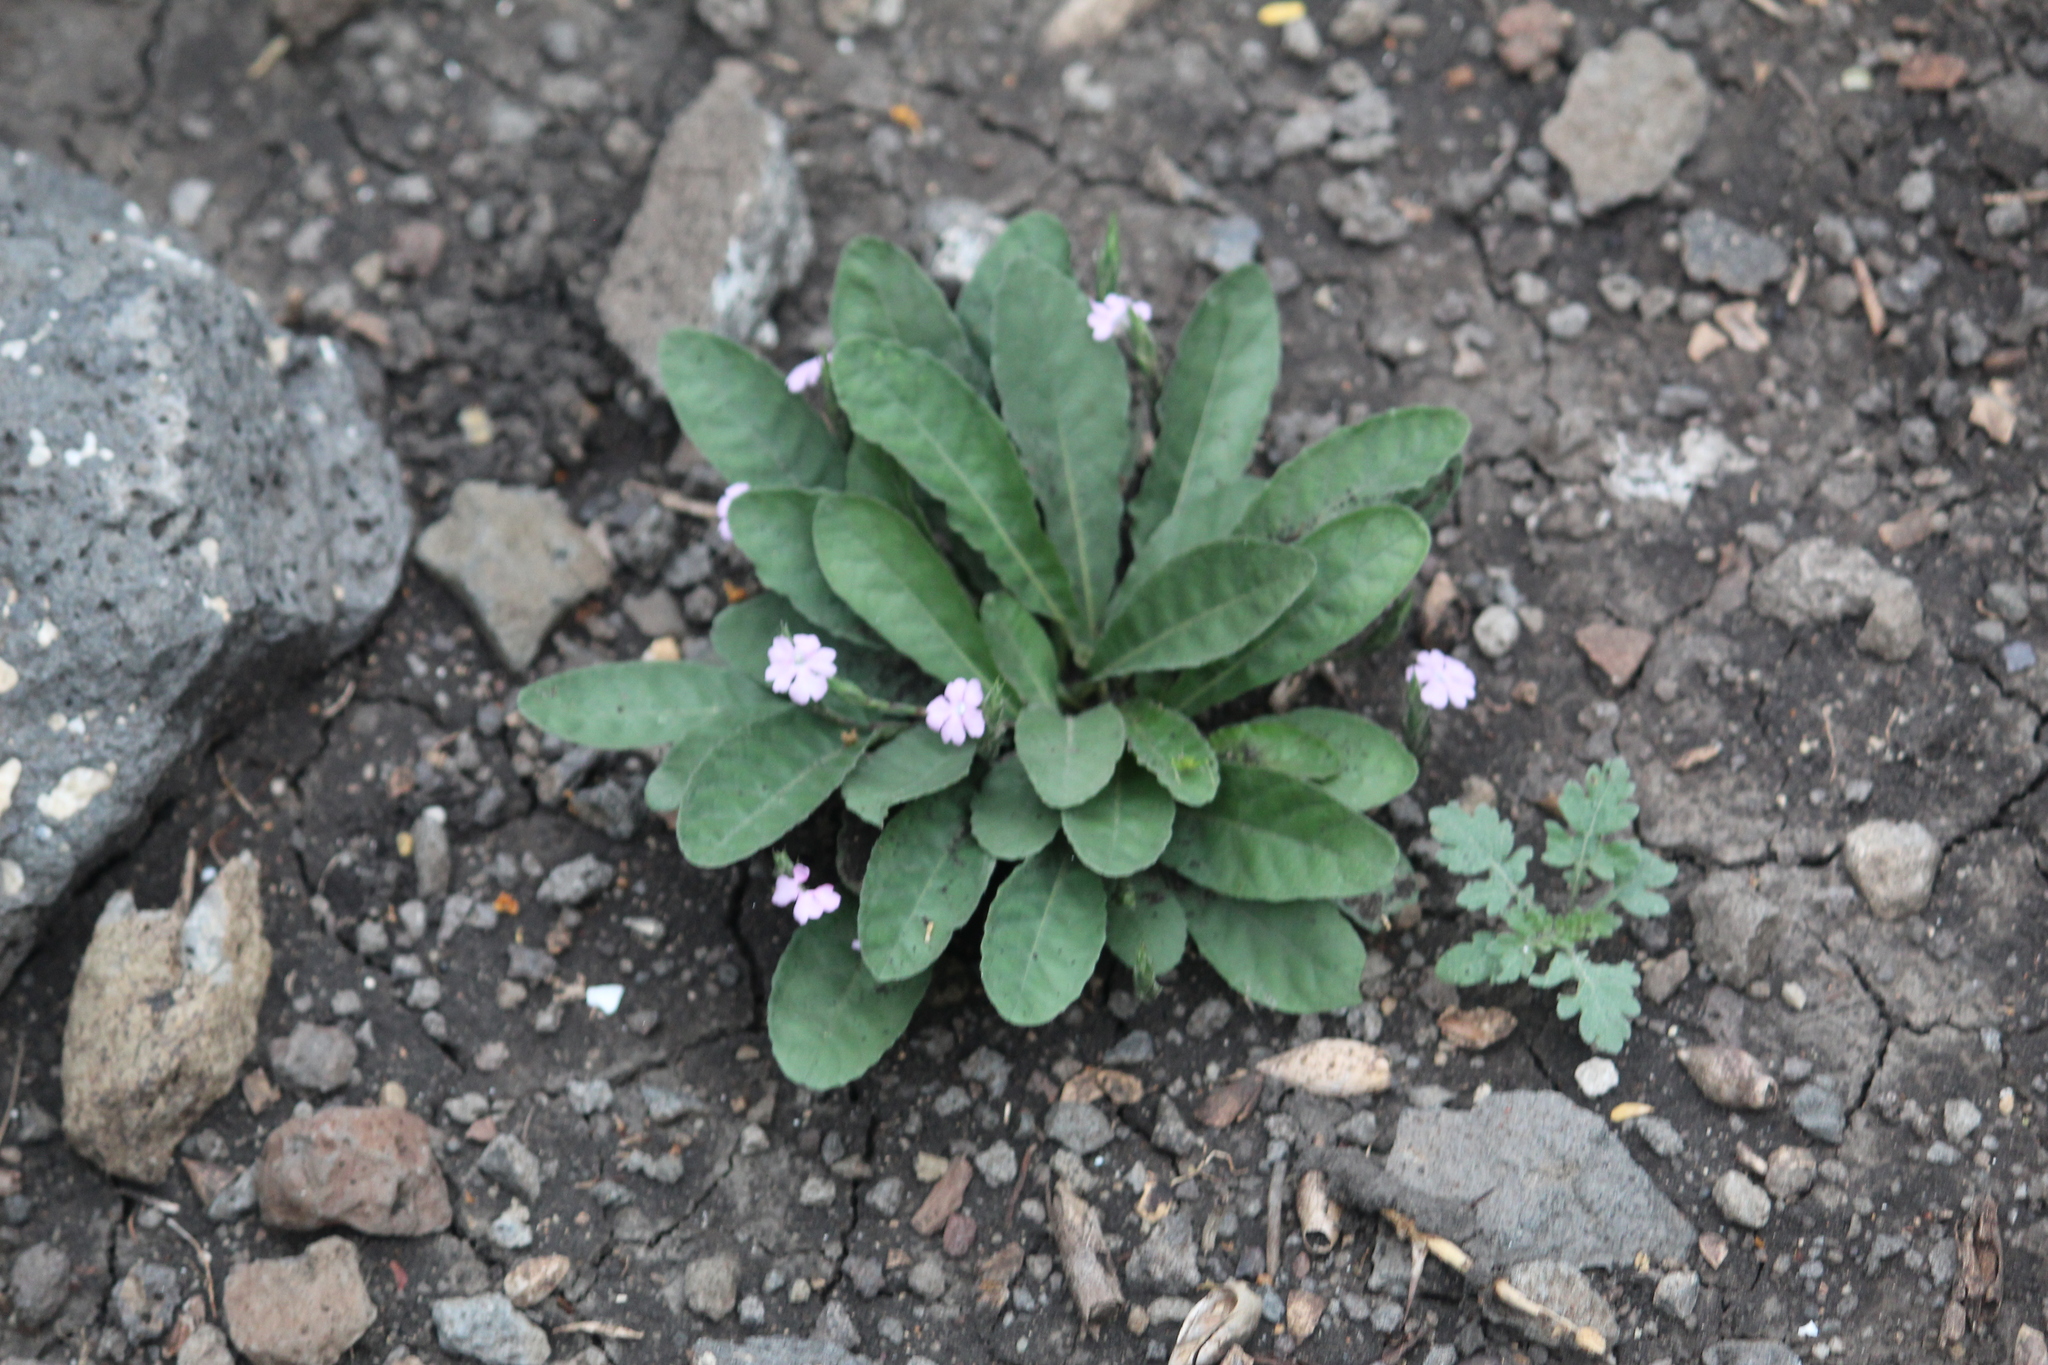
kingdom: Plantae
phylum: Tracheophyta
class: Magnoliopsida
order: Lamiales
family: Acanthaceae
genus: Elytraria
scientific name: Elytraria bromoides
